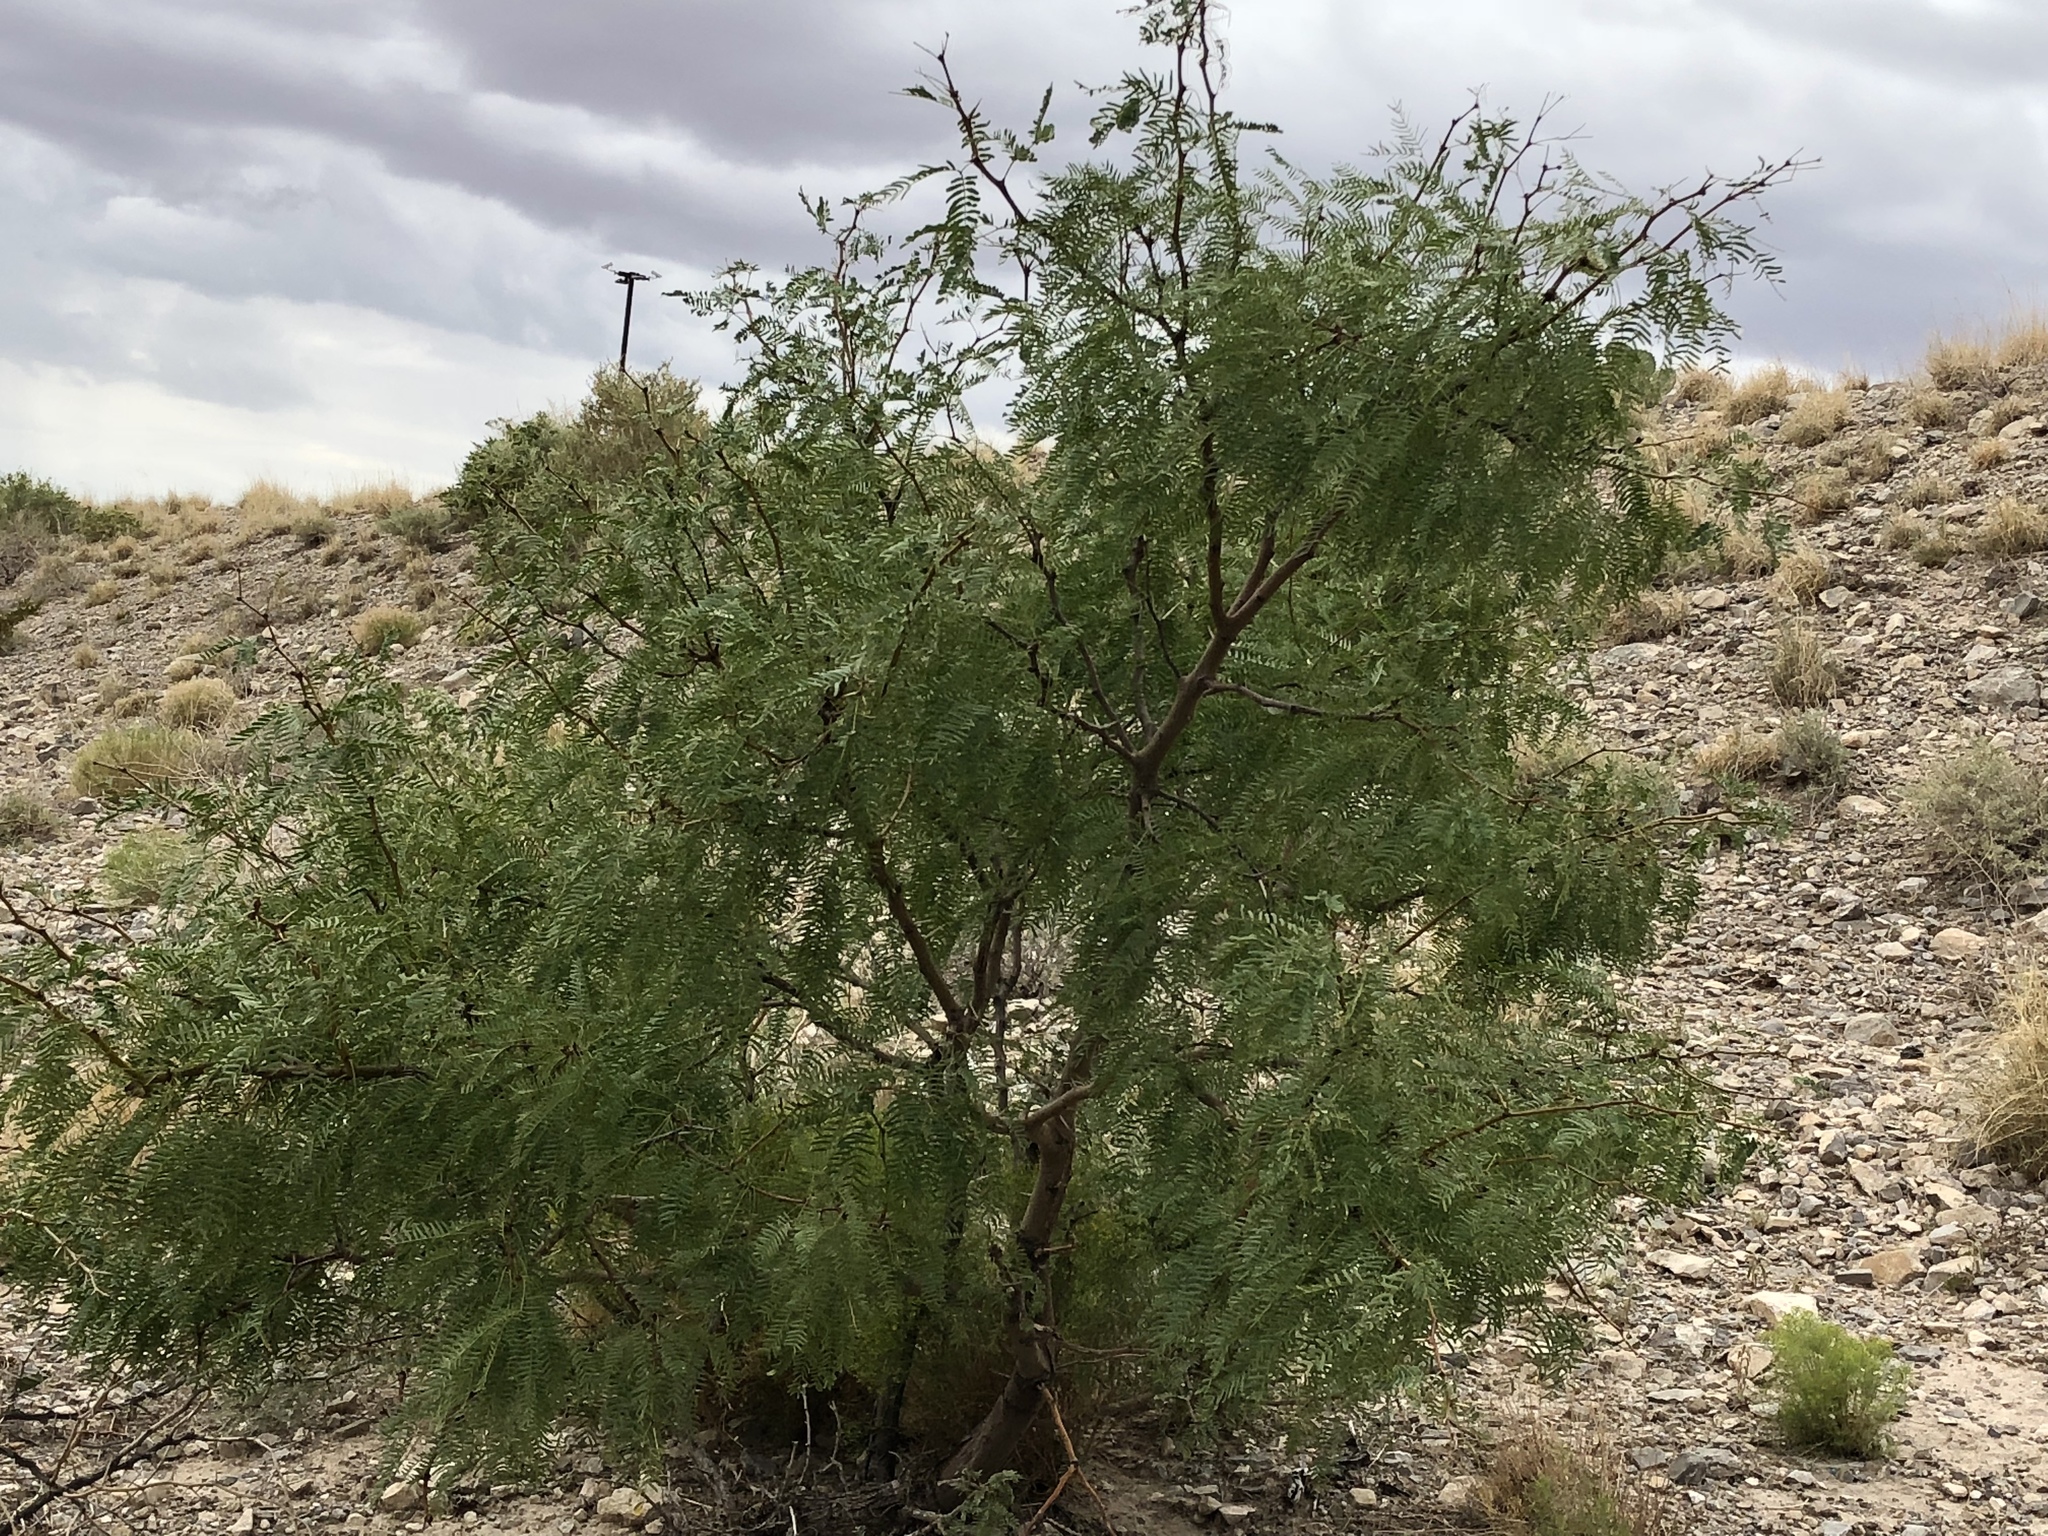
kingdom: Plantae
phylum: Tracheophyta
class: Magnoliopsida
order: Fabales
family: Fabaceae
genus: Prosopis
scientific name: Prosopis glandulosa
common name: Honey mesquite
